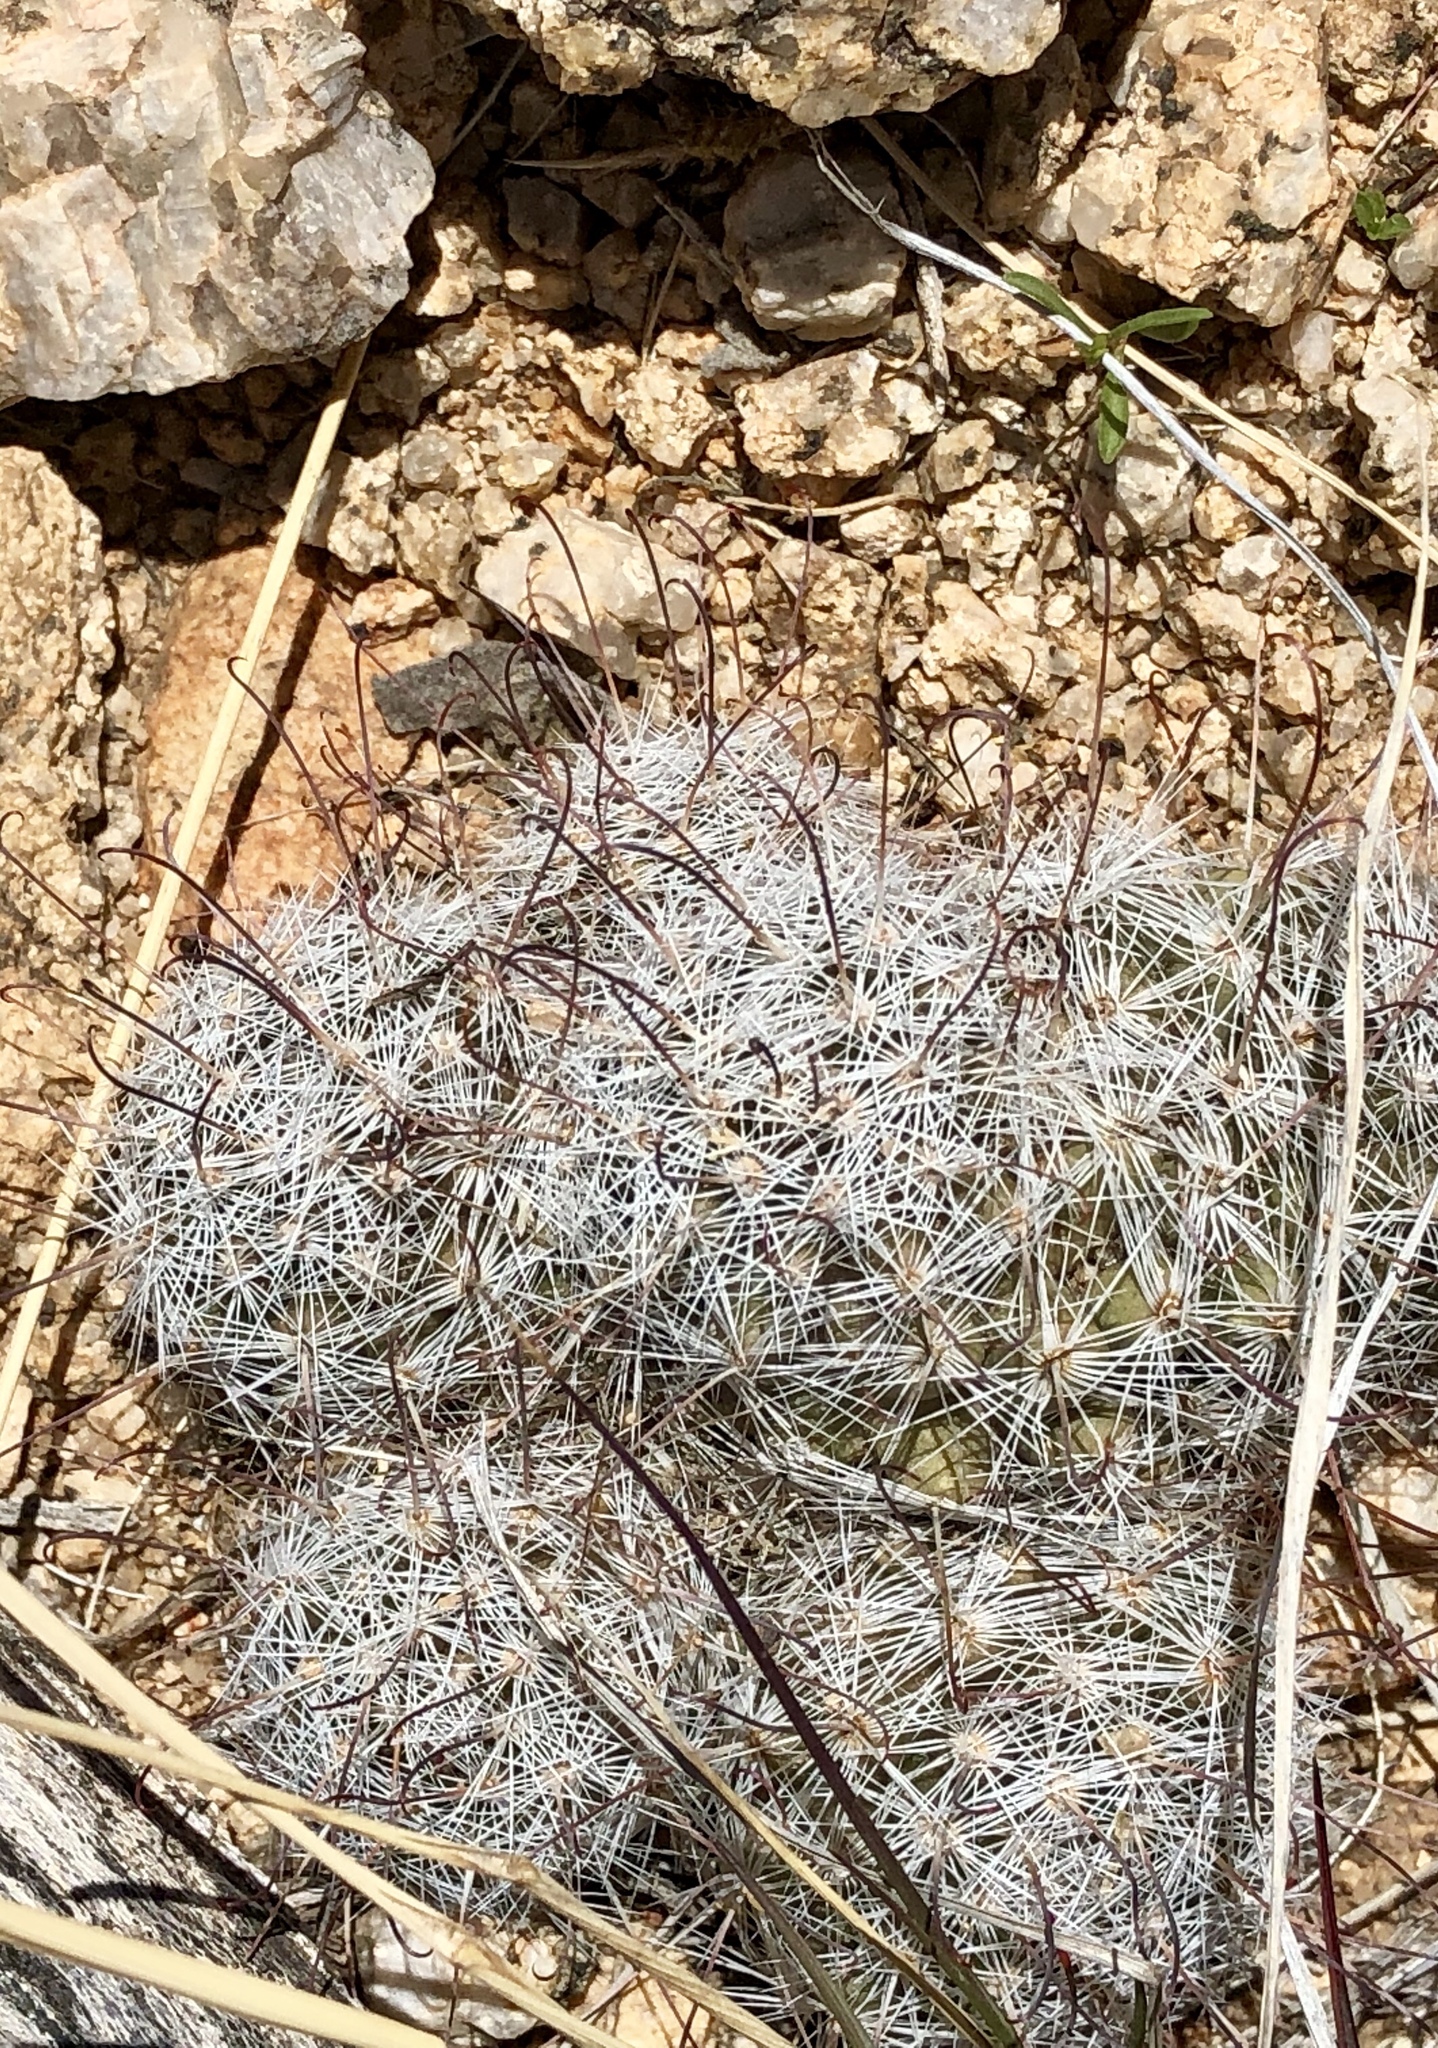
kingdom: Plantae
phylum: Tracheophyta
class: Magnoliopsida
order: Caryophyllales
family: Cactaceae
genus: Cochemiea
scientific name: Cochemiea grahamii
